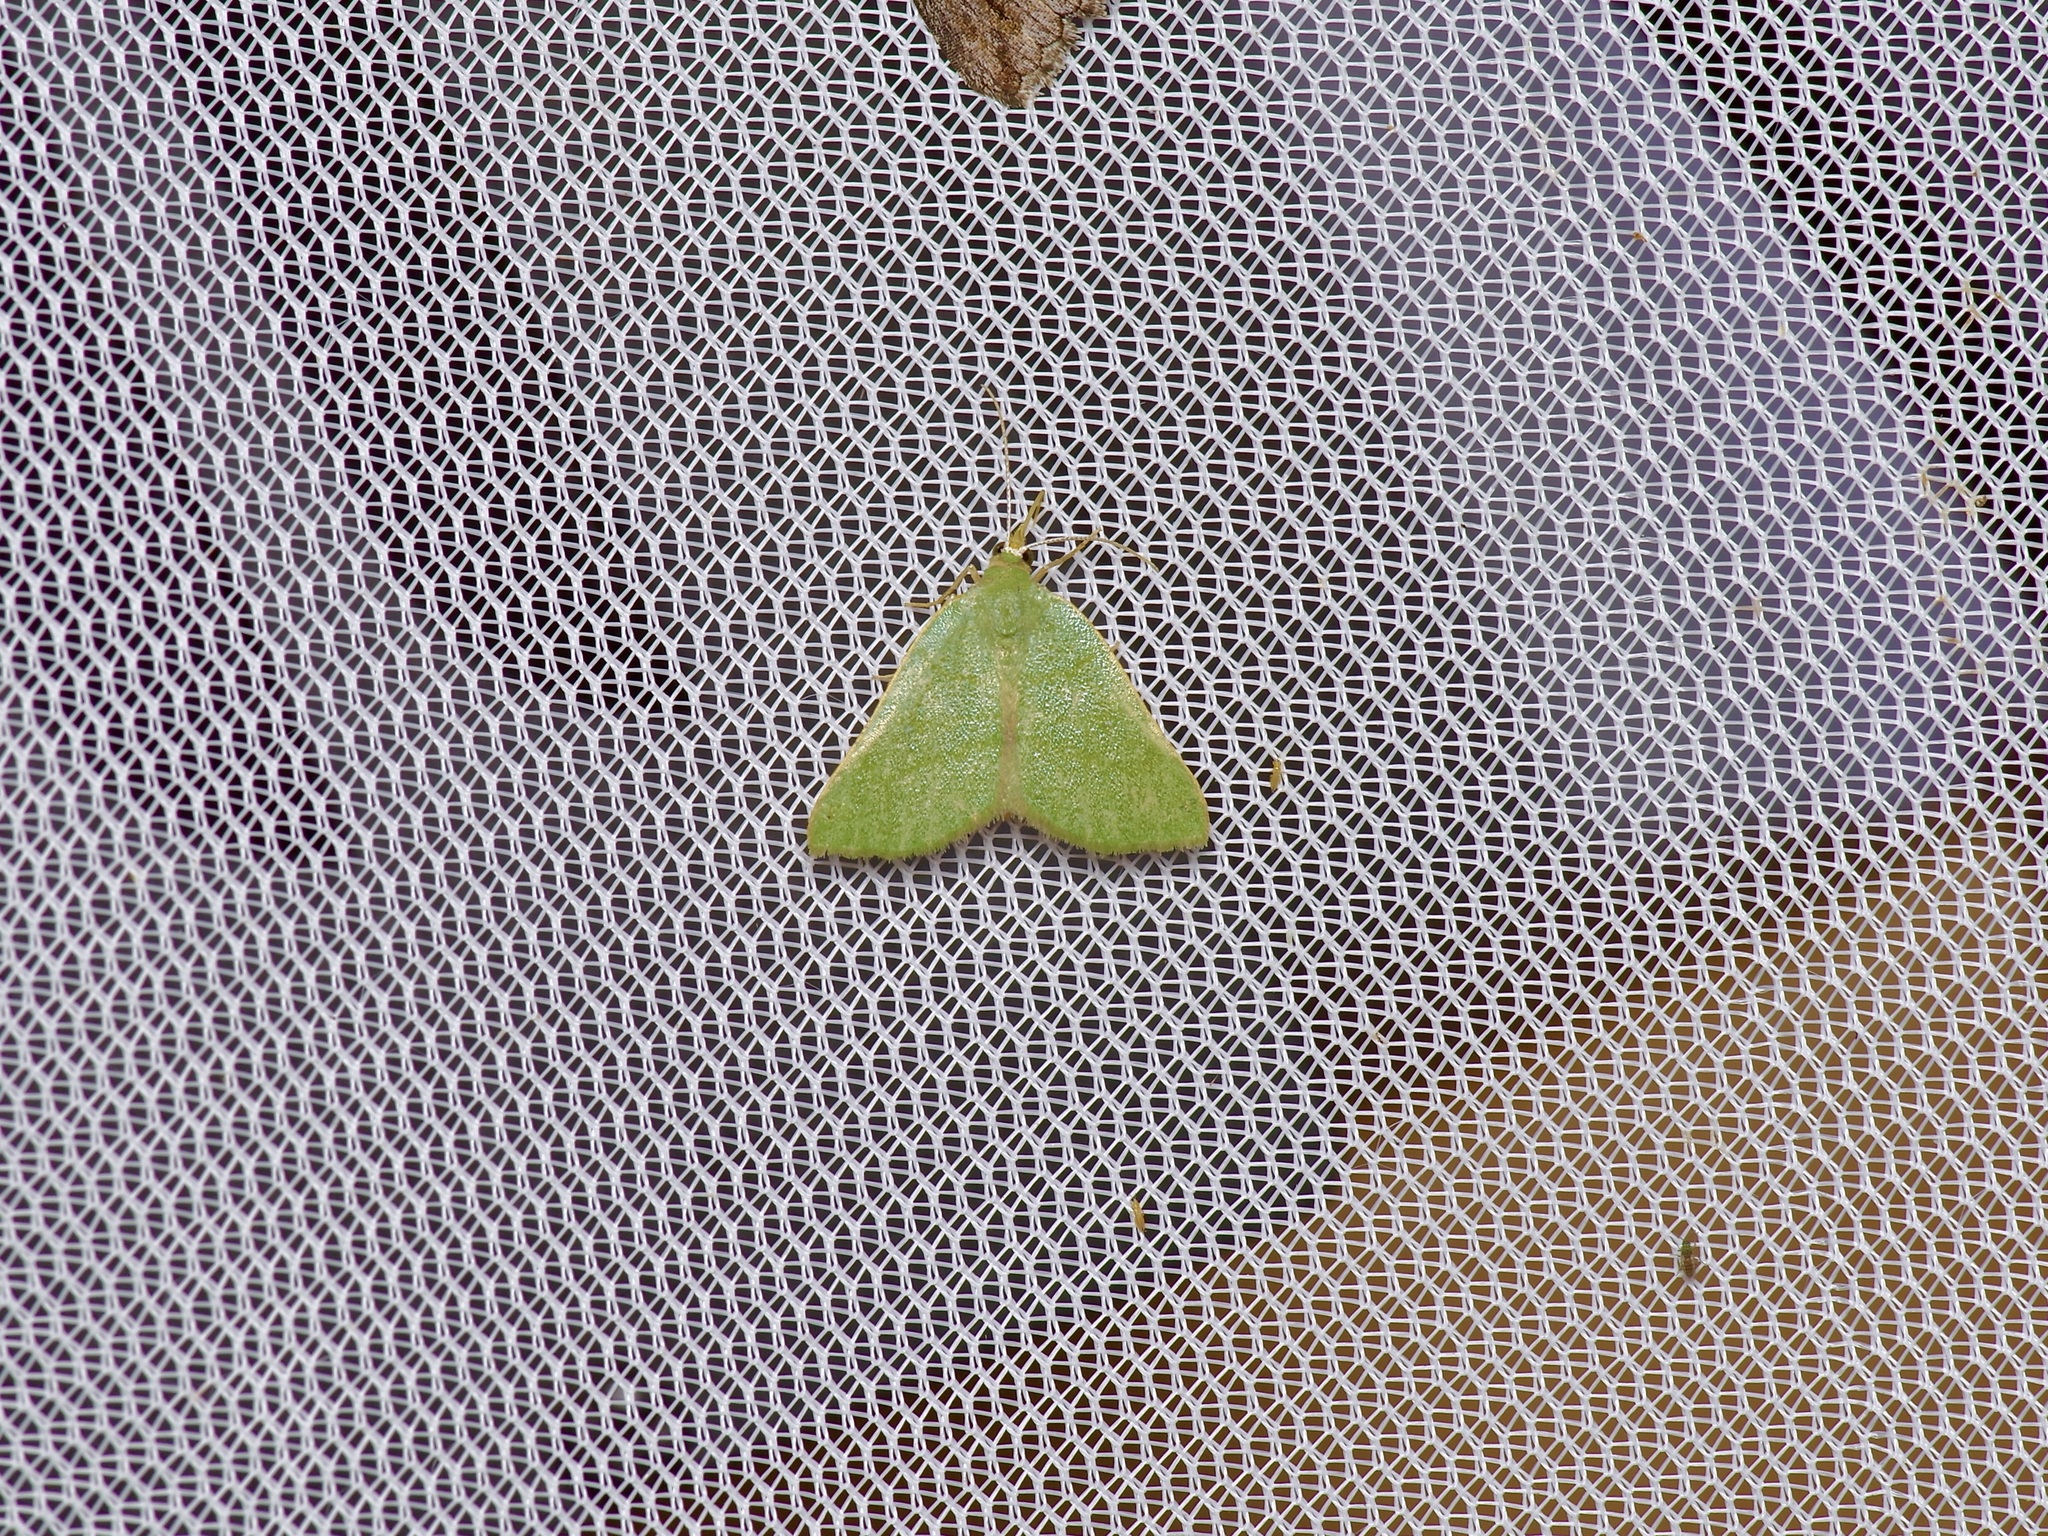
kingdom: Animalia
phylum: Arthropoda
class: Insecta
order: Lepidoptera
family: Geometridae
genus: Chloraspilates
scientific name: Chloraspilates bicoloraria
